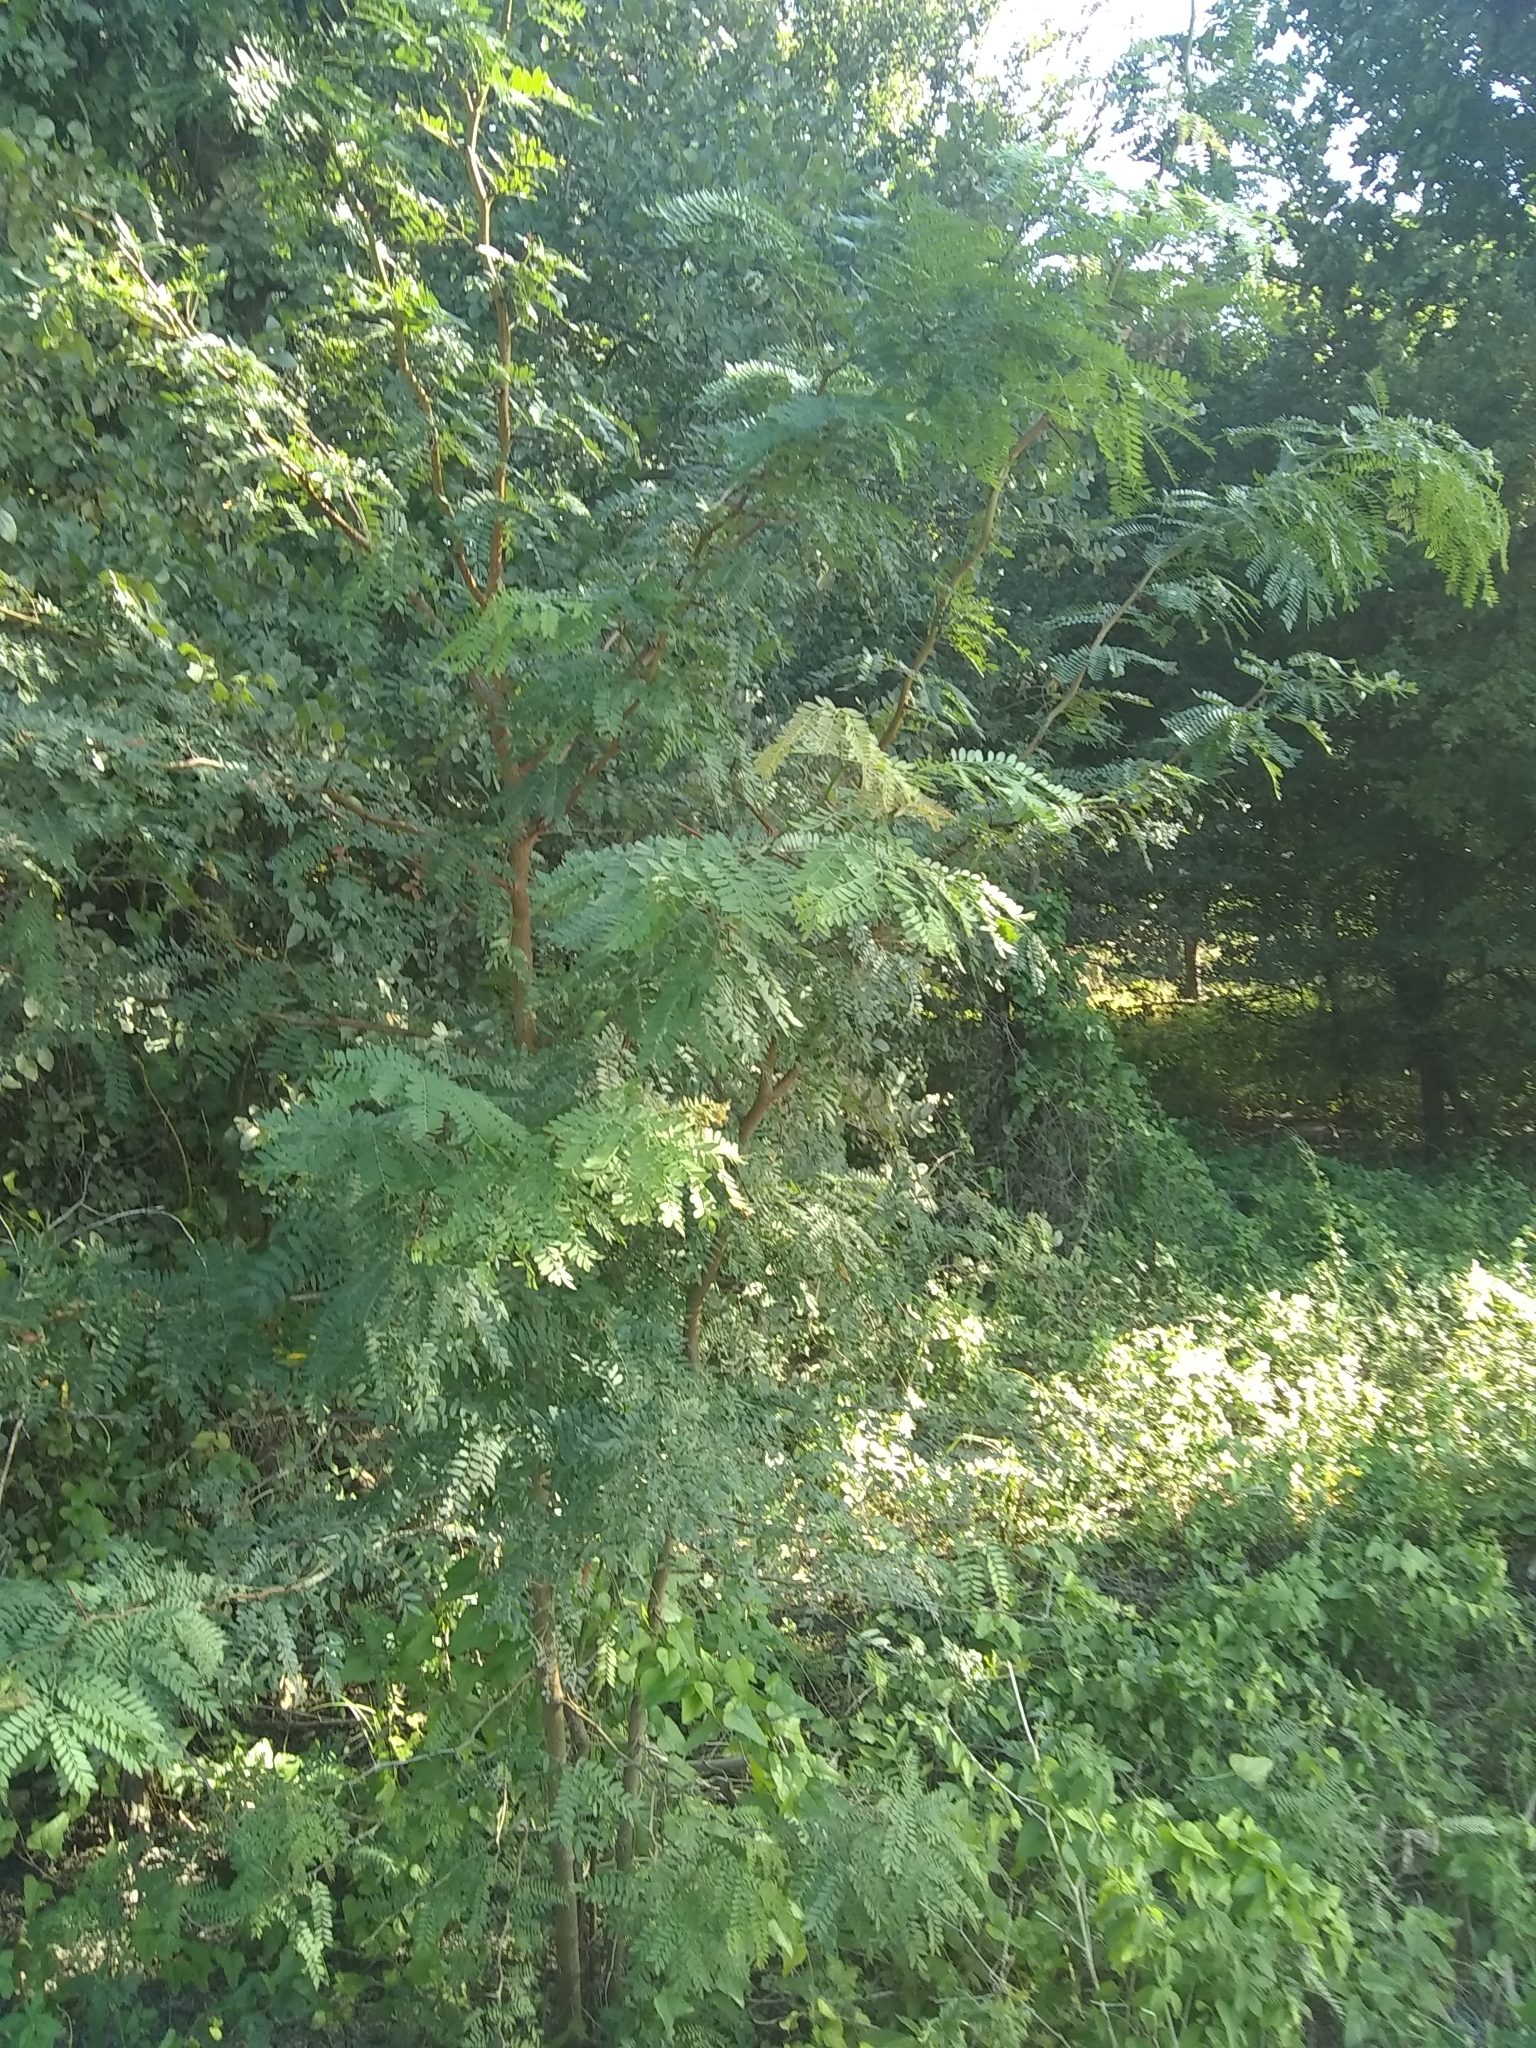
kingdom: Plantae
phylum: Tracheophyta
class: Magnoliopsida
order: Fabales
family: Fabaceae
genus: Gleditsia
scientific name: Gleditsia triacanthos
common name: Common honeylocust
